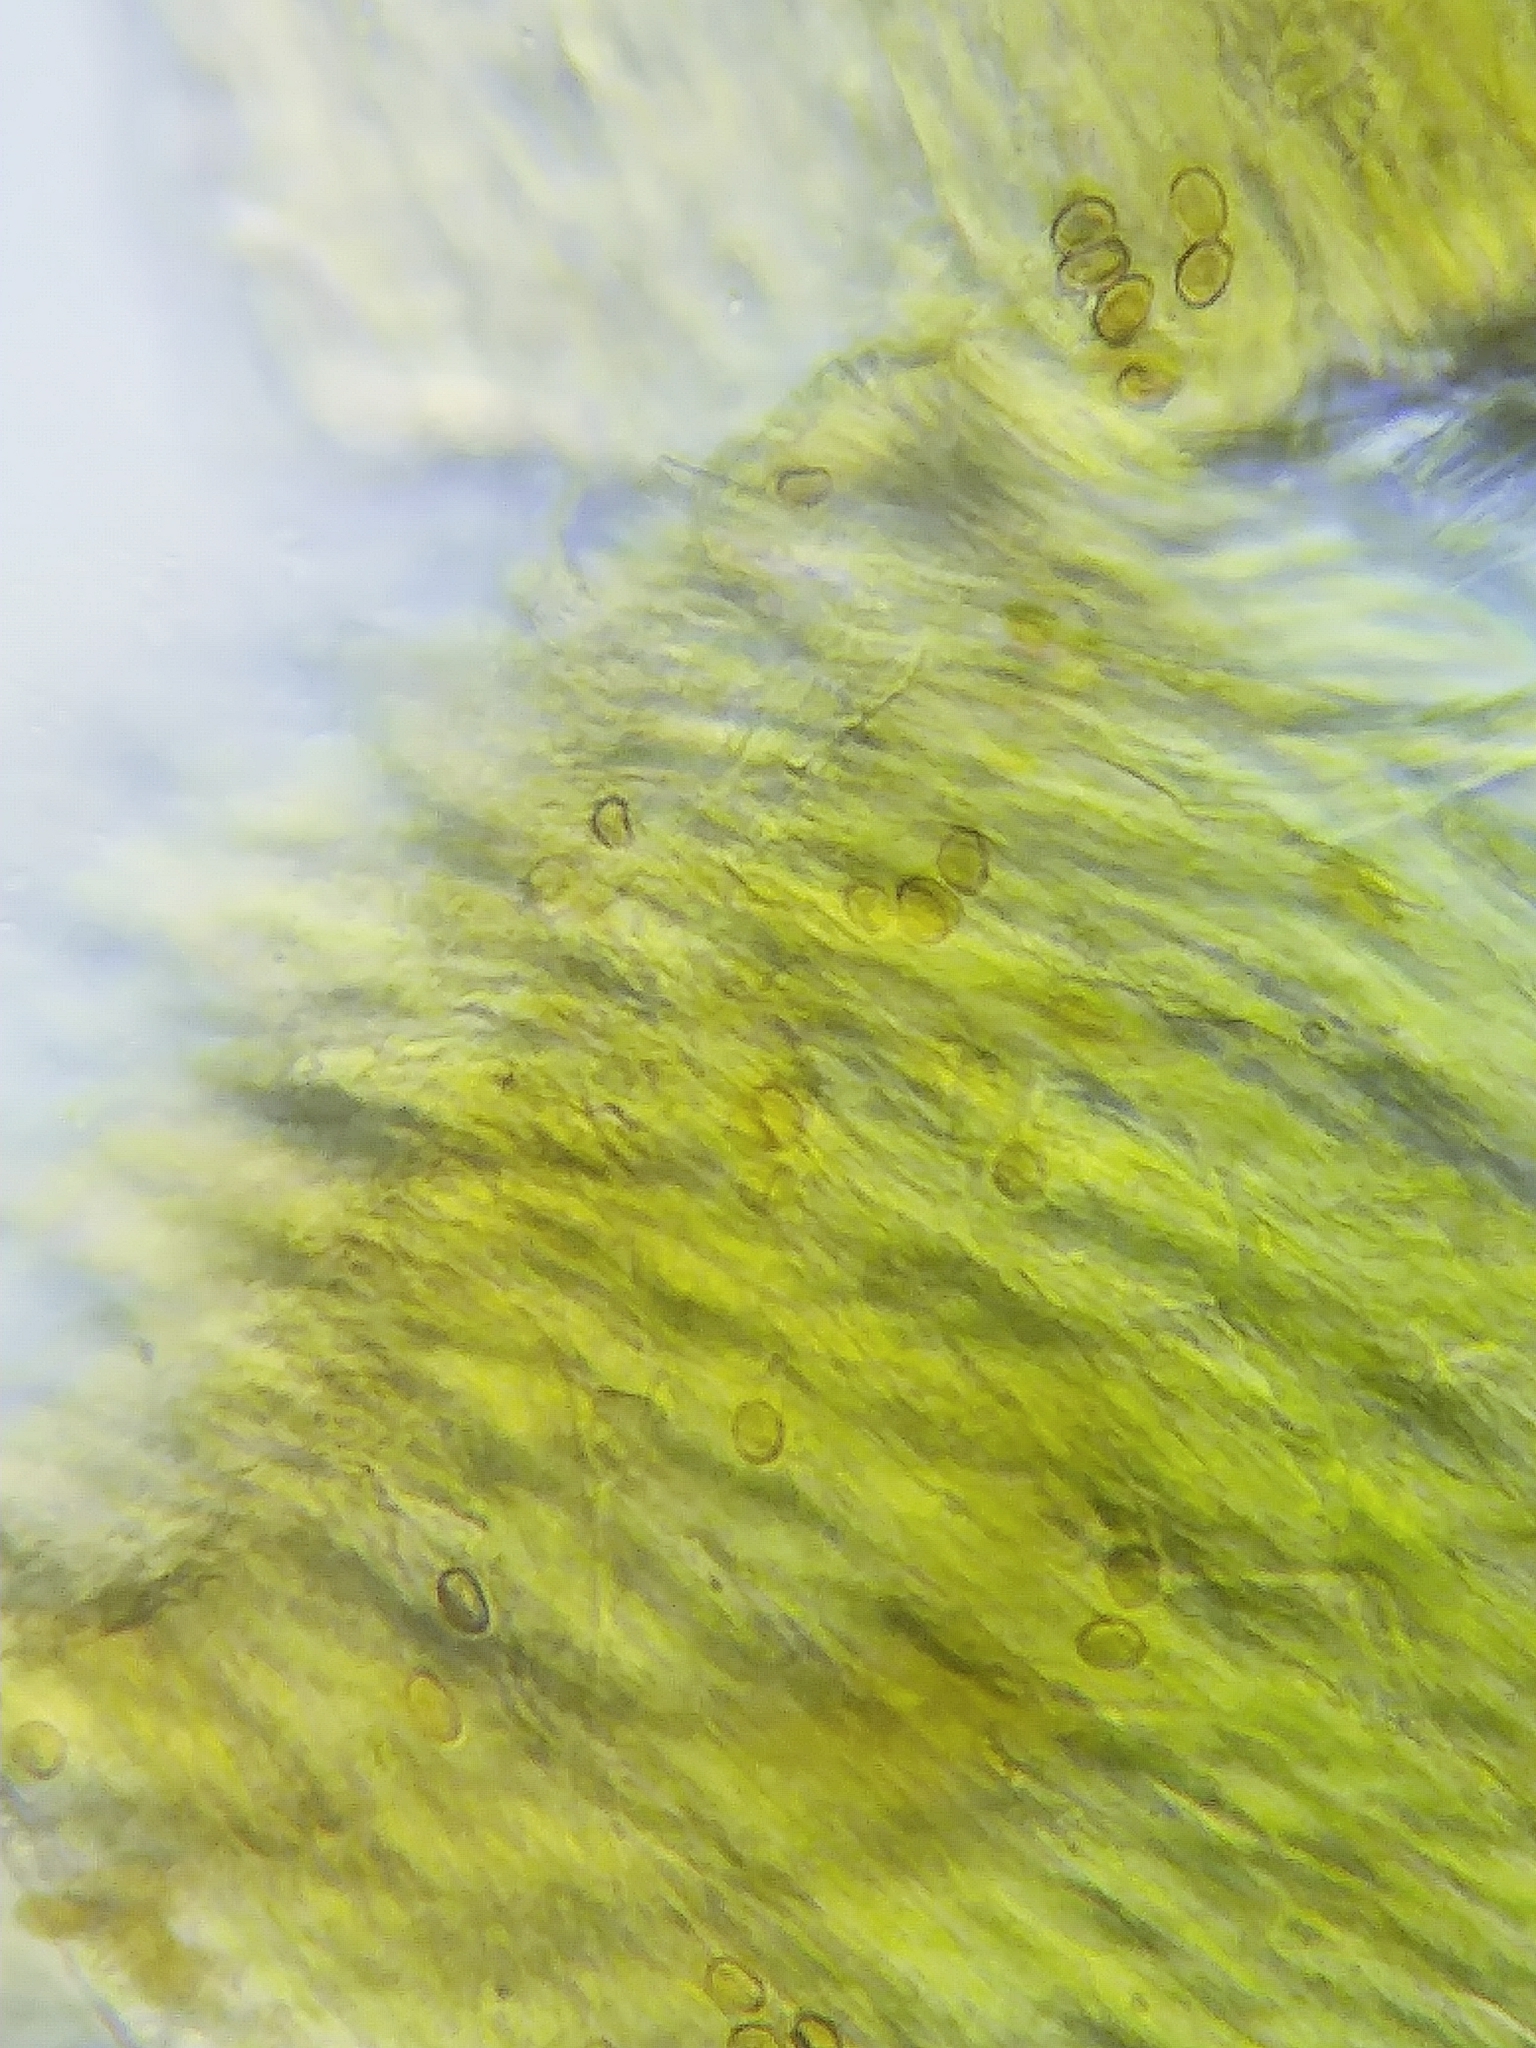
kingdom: Fungi
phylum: Basidiomycota
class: Agaricomycetes
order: Hymenochaetales
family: Hymenochaetaceae
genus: Inonotus
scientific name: Inonotus cuticularis
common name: Clustered bracket
